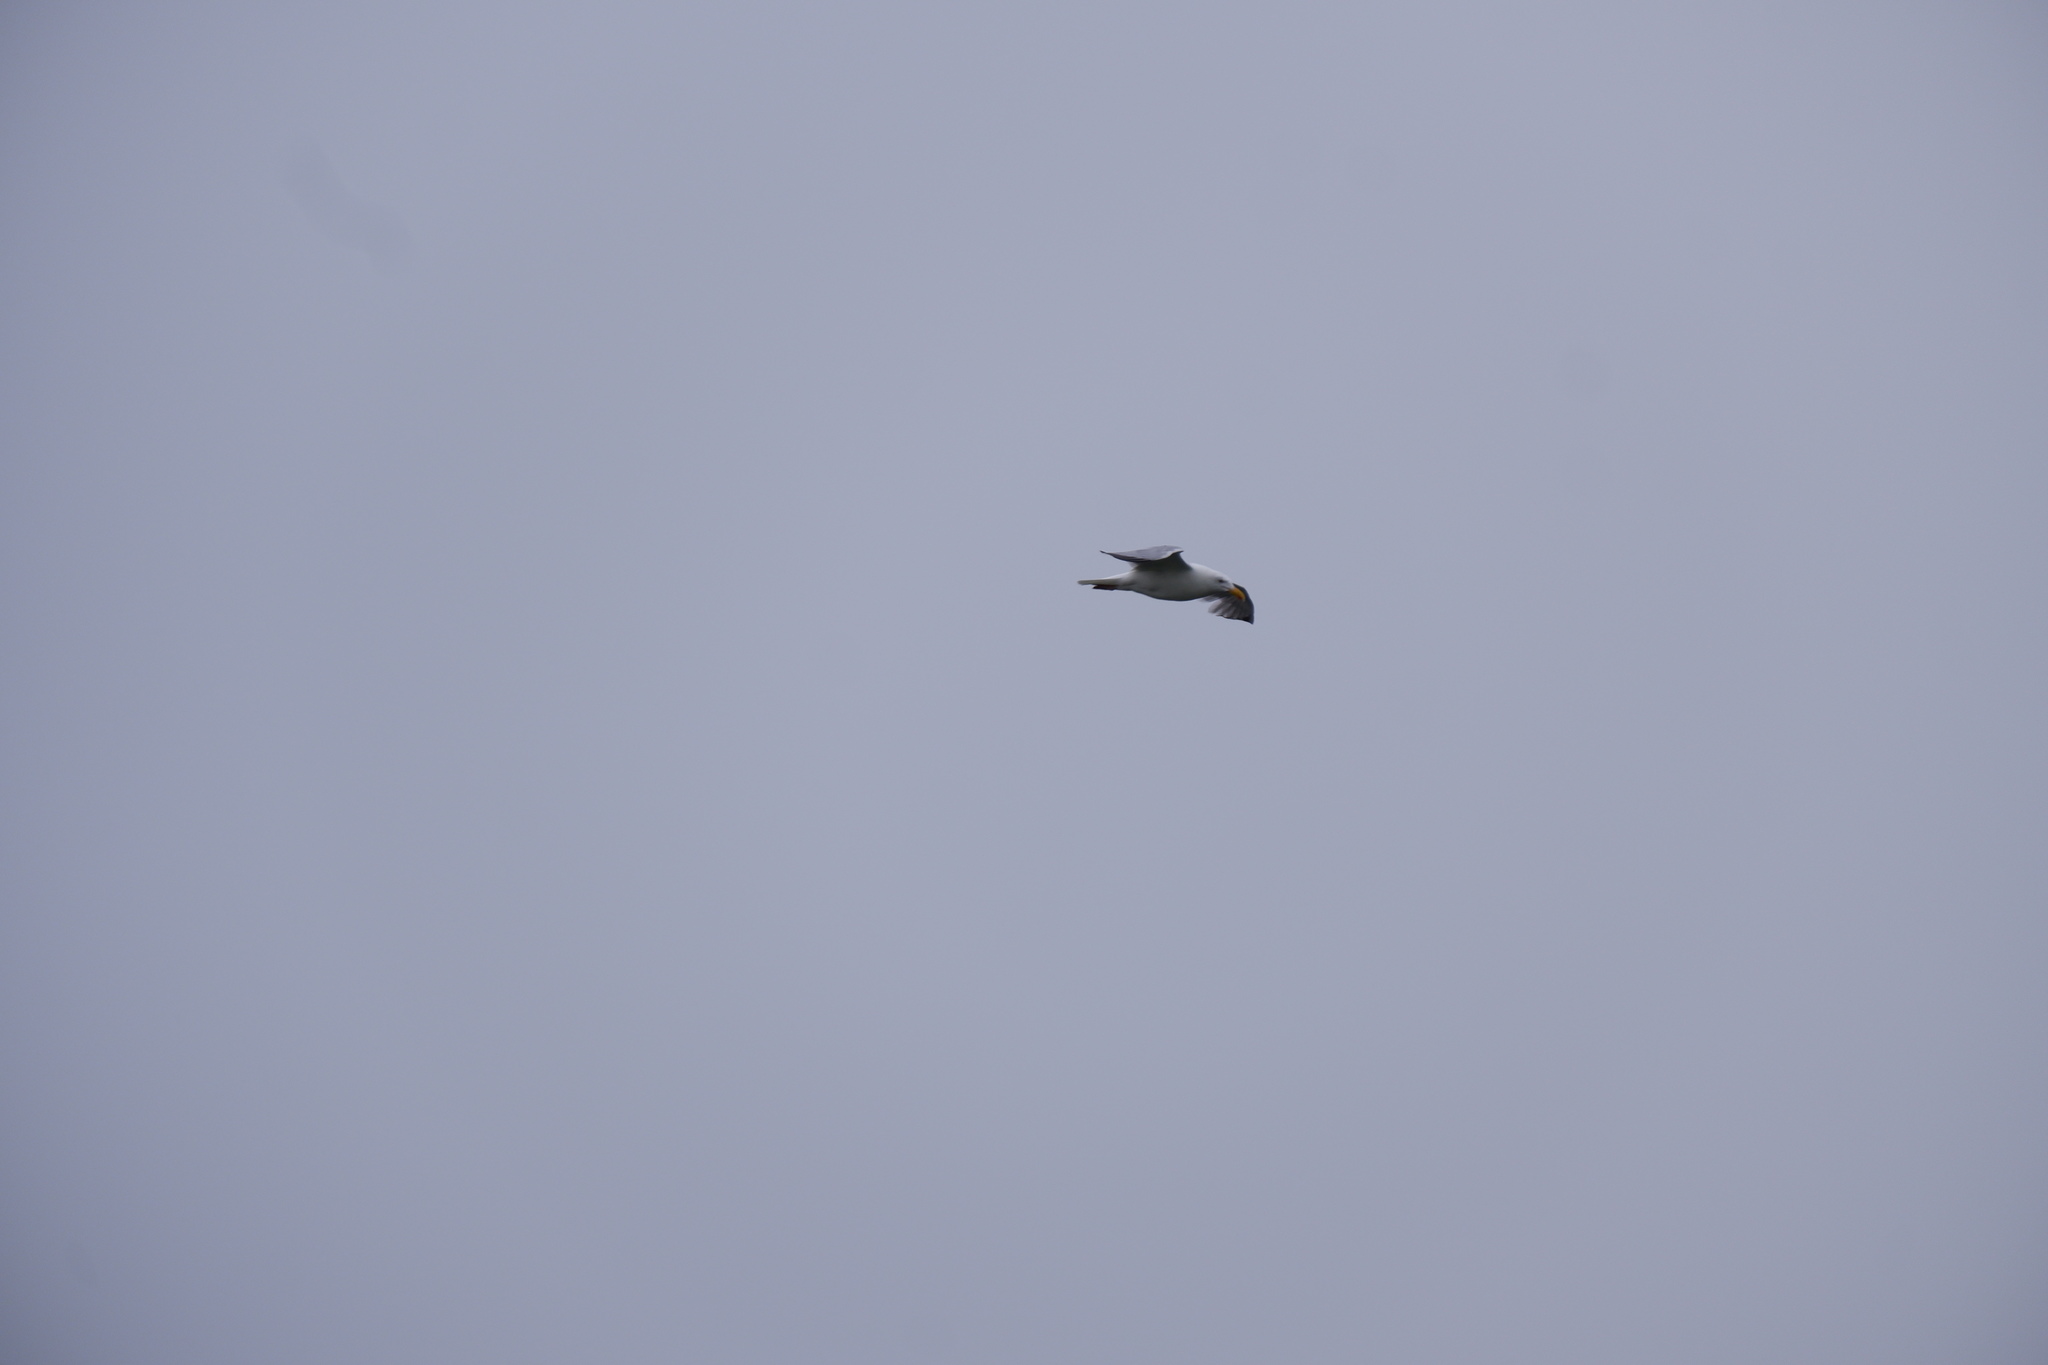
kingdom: Animalia
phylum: Chordata
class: Aves
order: Charadriiformes
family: Laridae
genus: Larus
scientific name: Larus smithsonianus
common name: American herring gull
